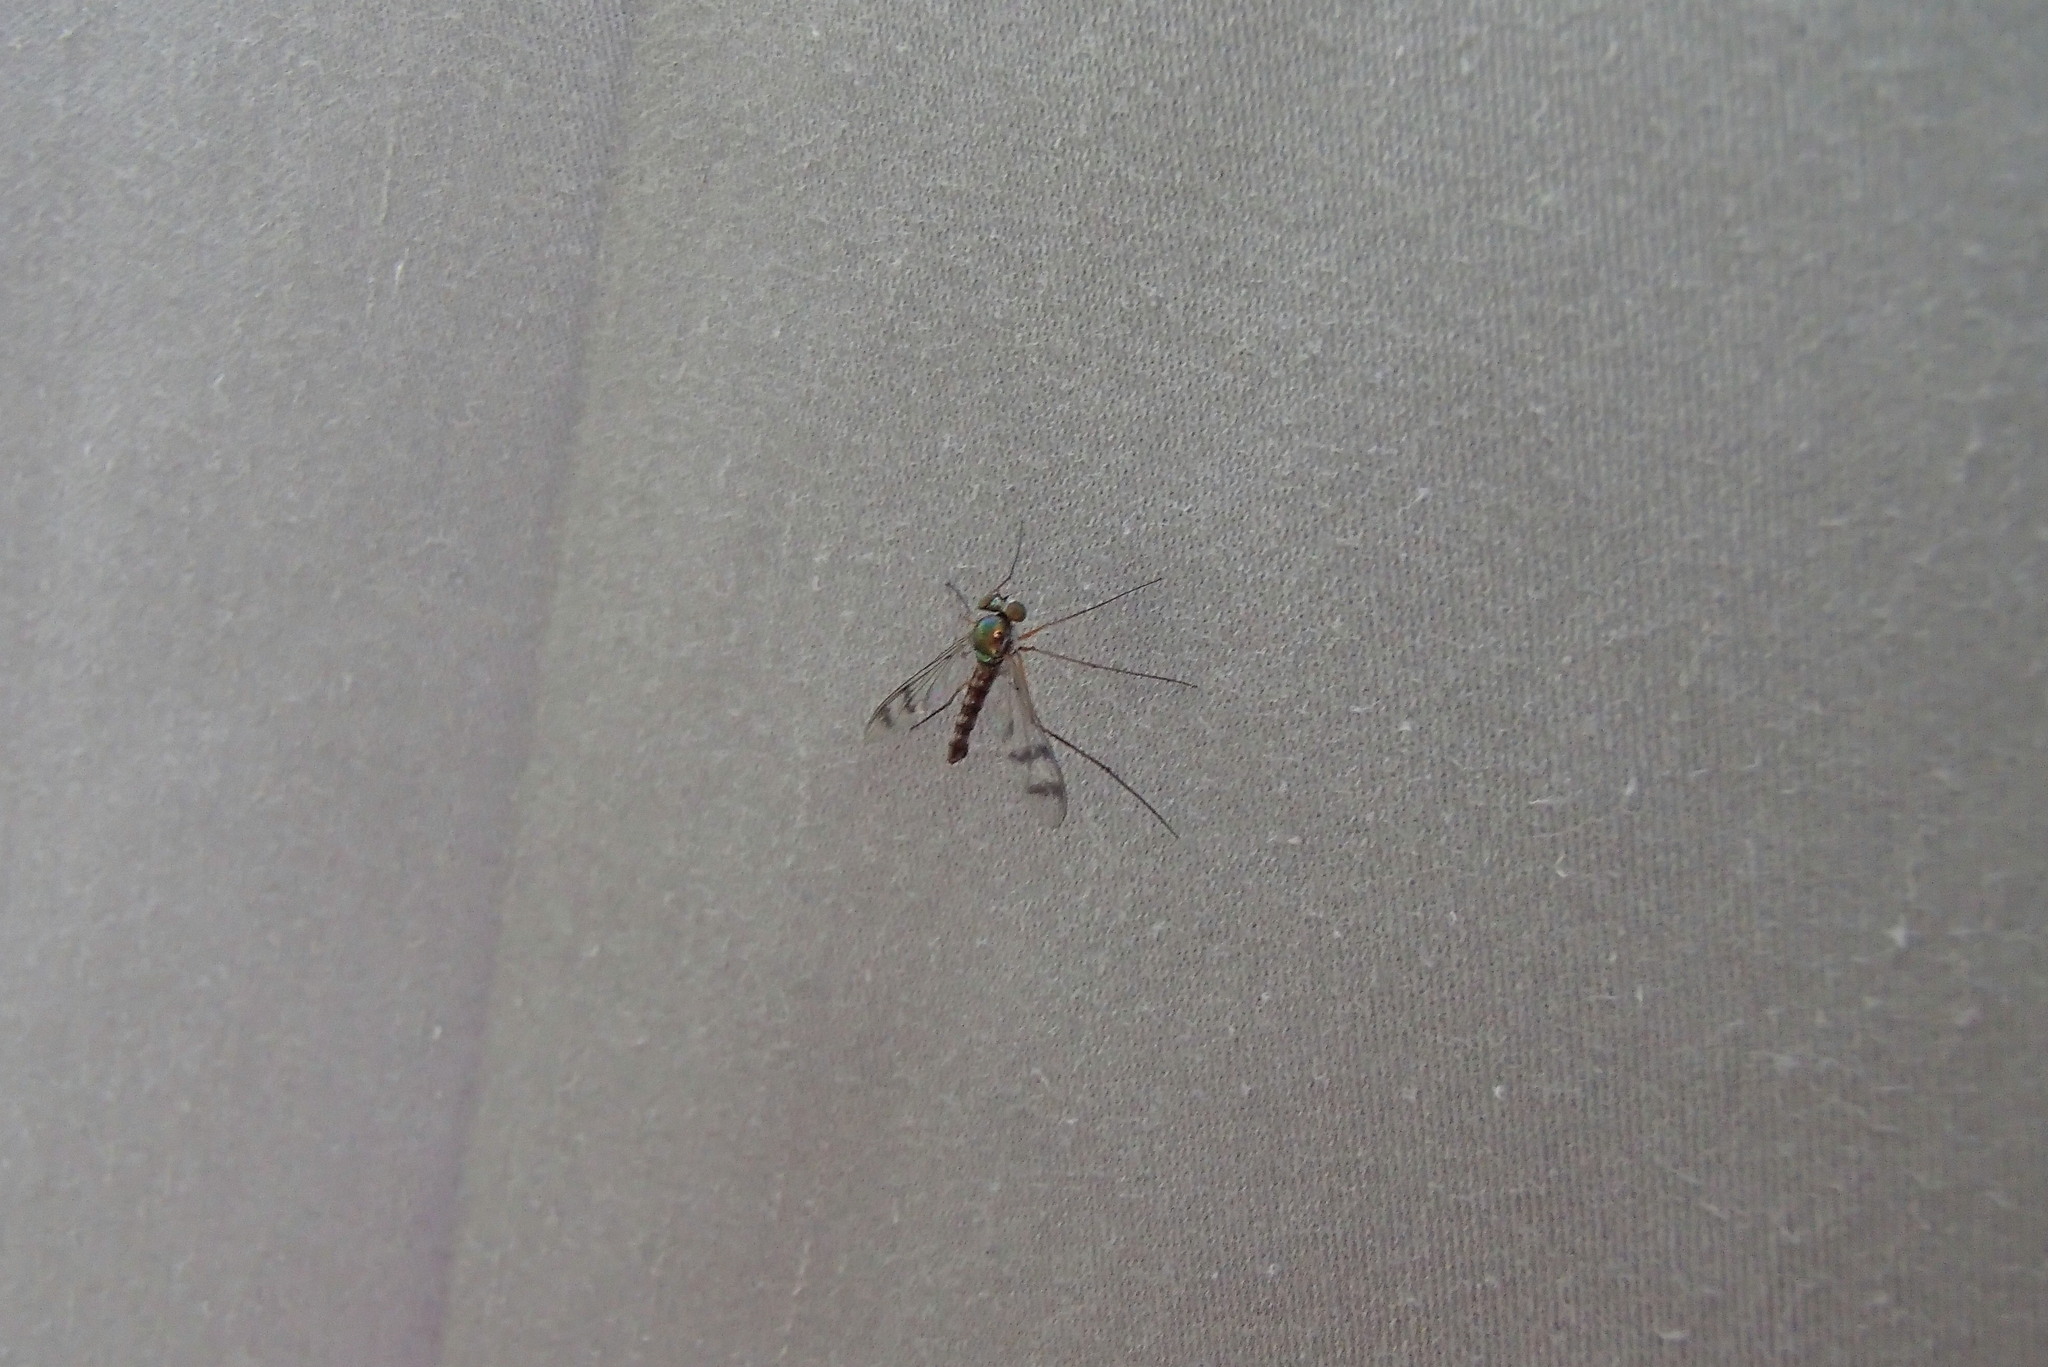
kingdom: Animalia
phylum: Arthropoda
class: Insecta
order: Diptera
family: Dolichopodidae
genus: Heteropsilopus
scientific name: Heteropsilopus squamifer
